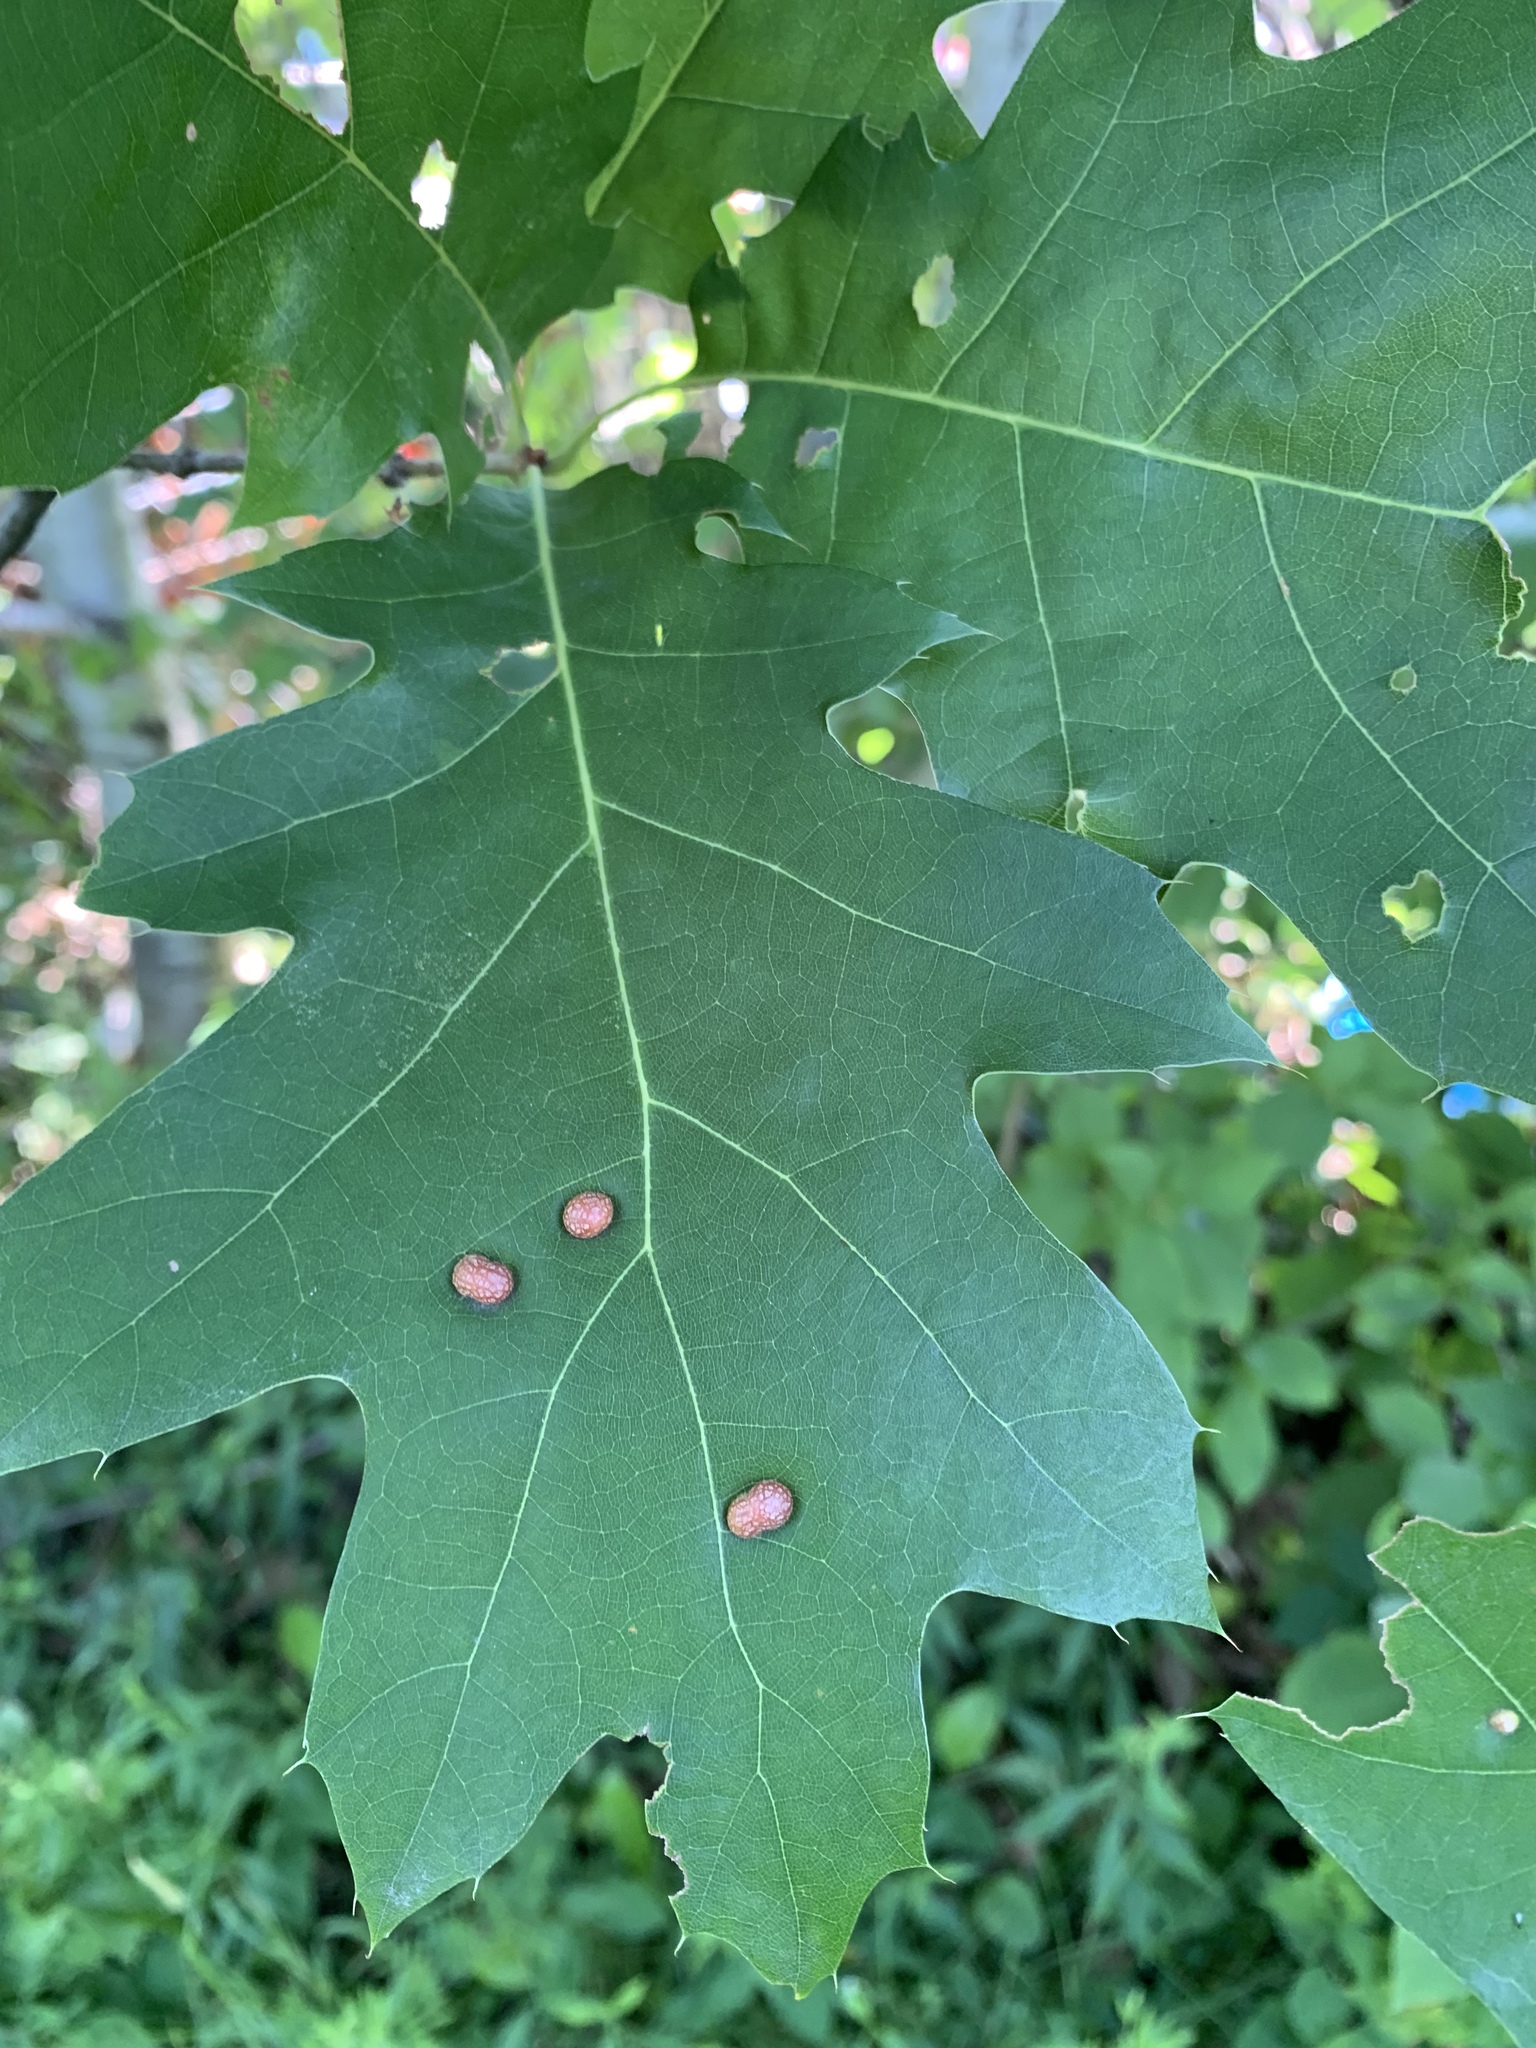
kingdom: Animalia
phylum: Arthropoda
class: Insecta
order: Diptera
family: Cecidomyiidae
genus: Polystepha
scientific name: Polystepha pilulae
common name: Oak leaf gall midge
